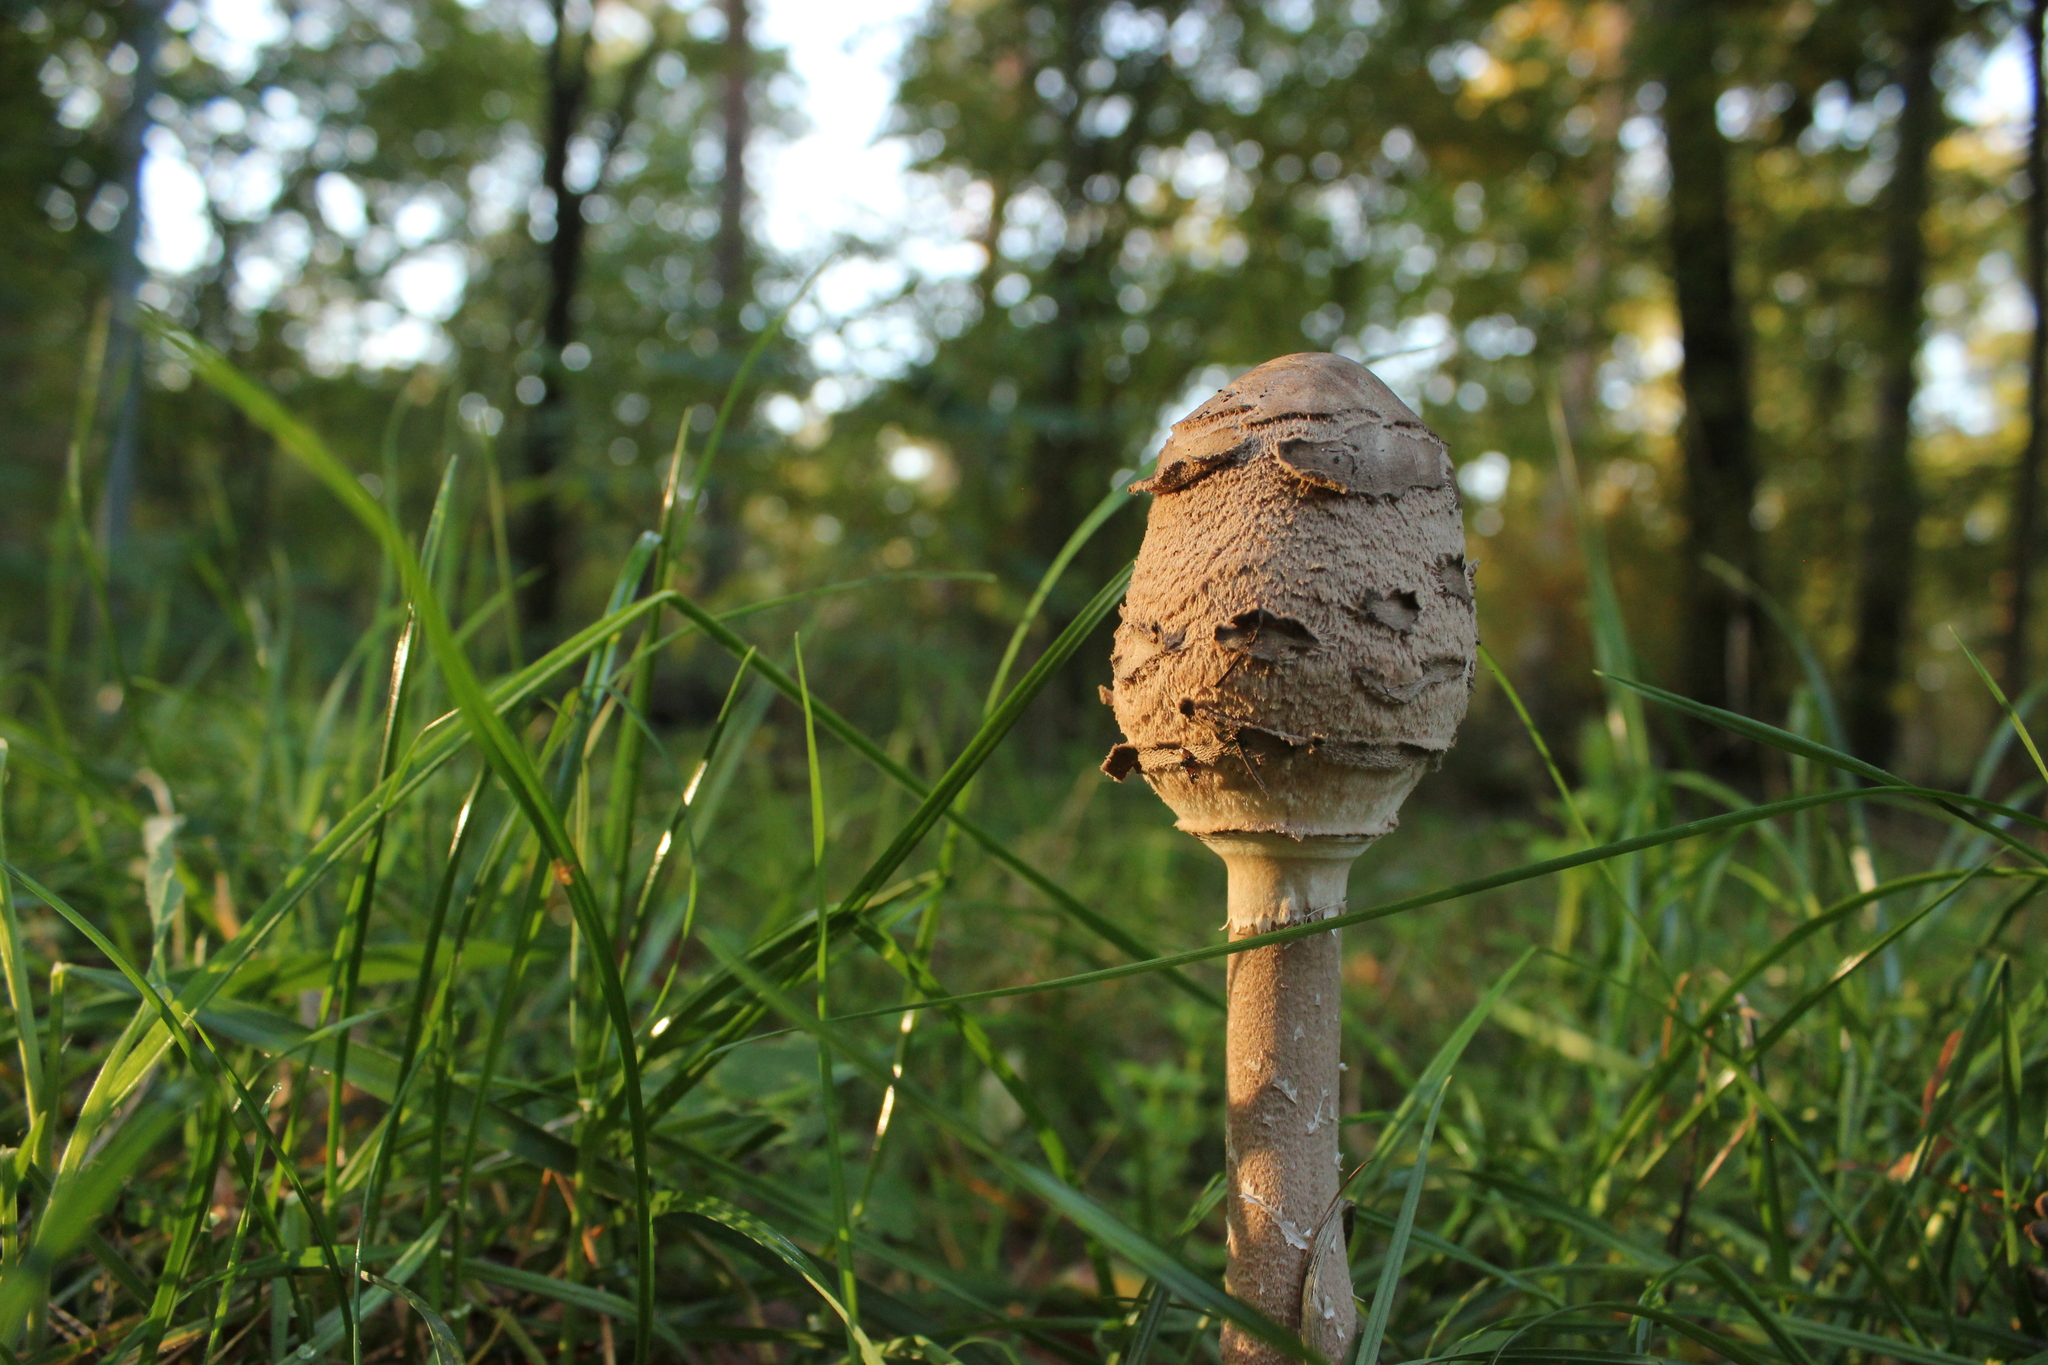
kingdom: Fungi
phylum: Basidiomycota
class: Agaricomycetes
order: Agaricales
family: Agaricaceae
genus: Macrolepiota
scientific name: Macrolepiota procera
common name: Parasol
